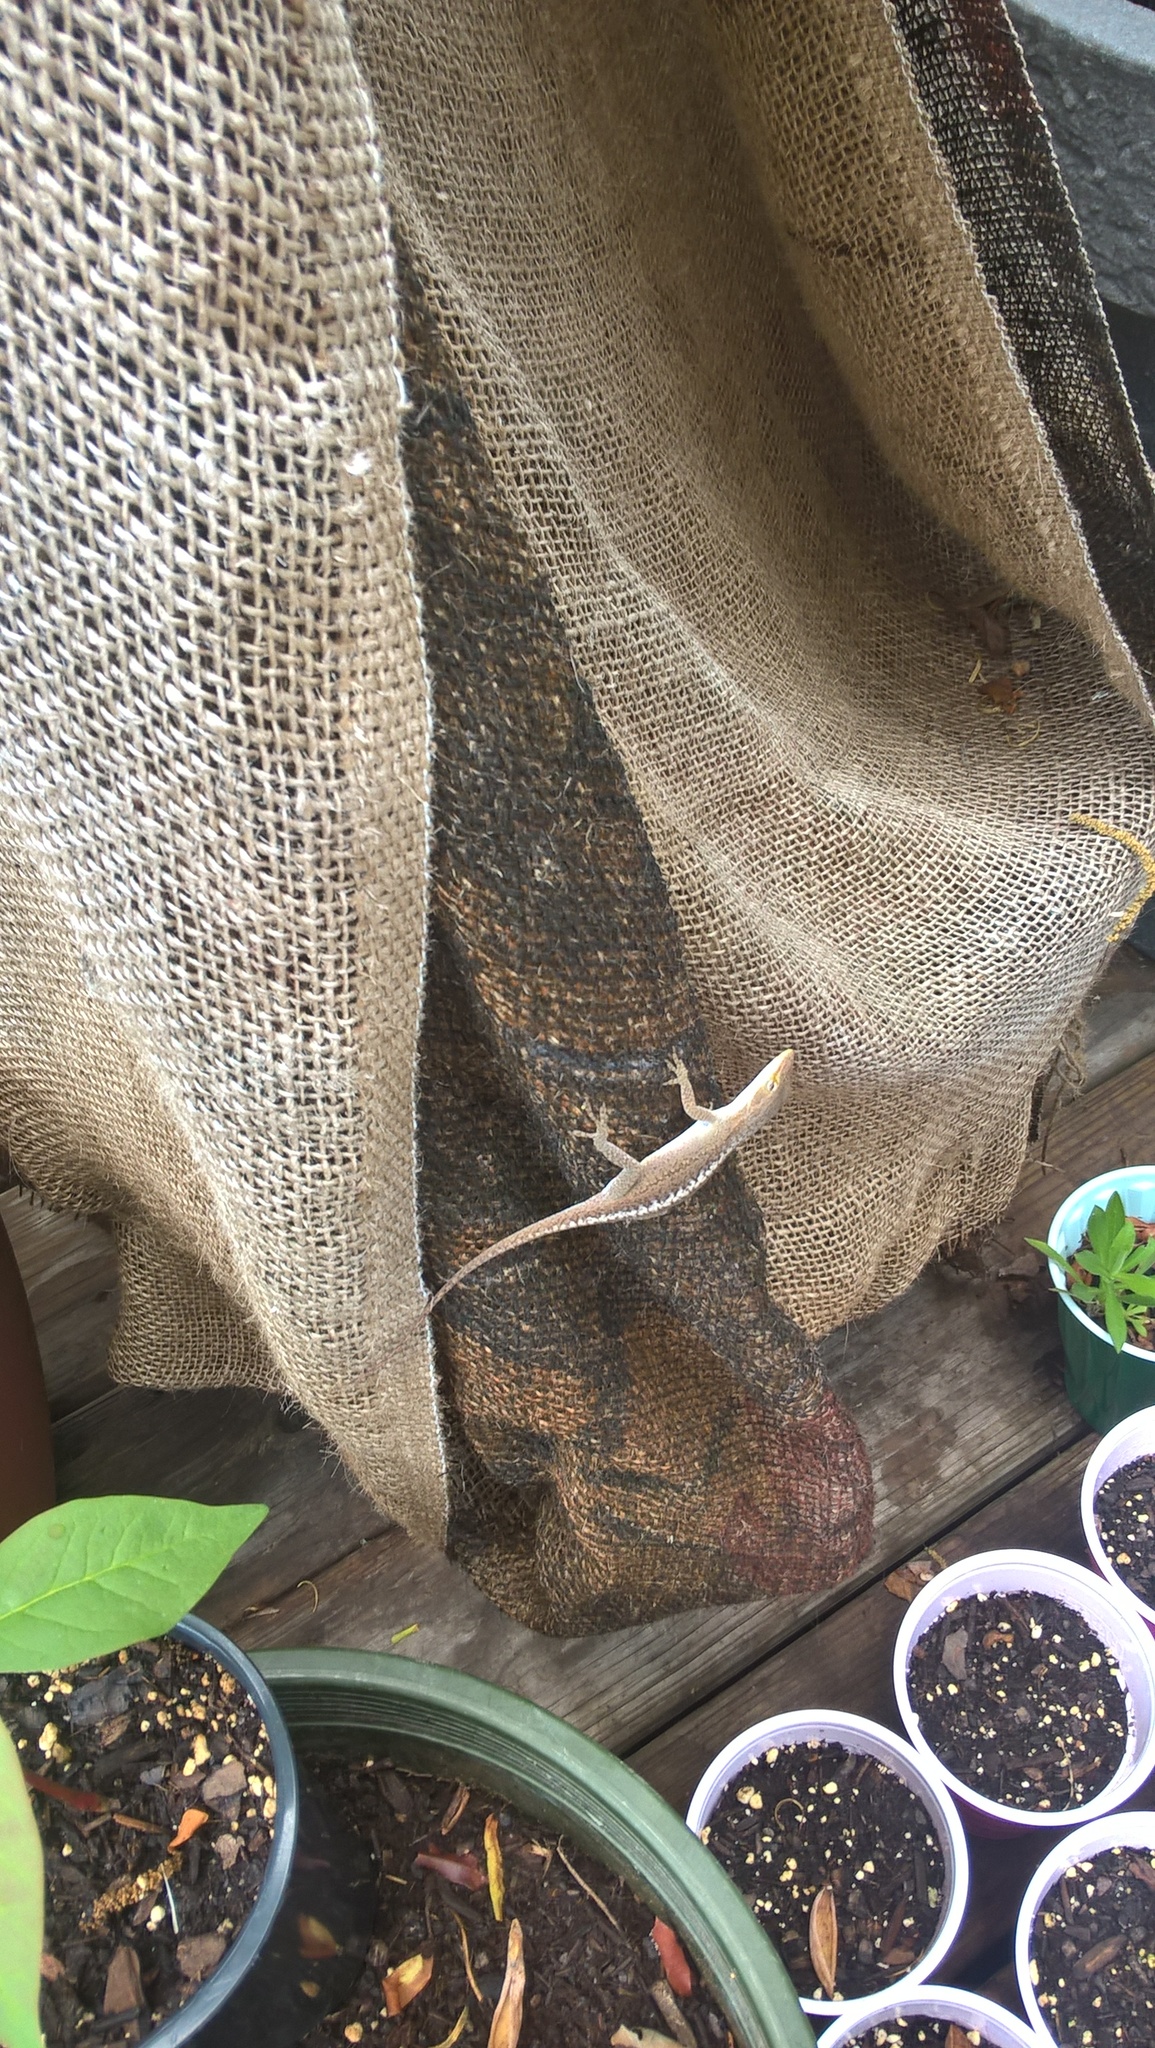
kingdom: Animalia
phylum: Chordata
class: Squamata
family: Dactyloidae
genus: Anolis
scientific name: Anolis carolinensis
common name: Green anole
